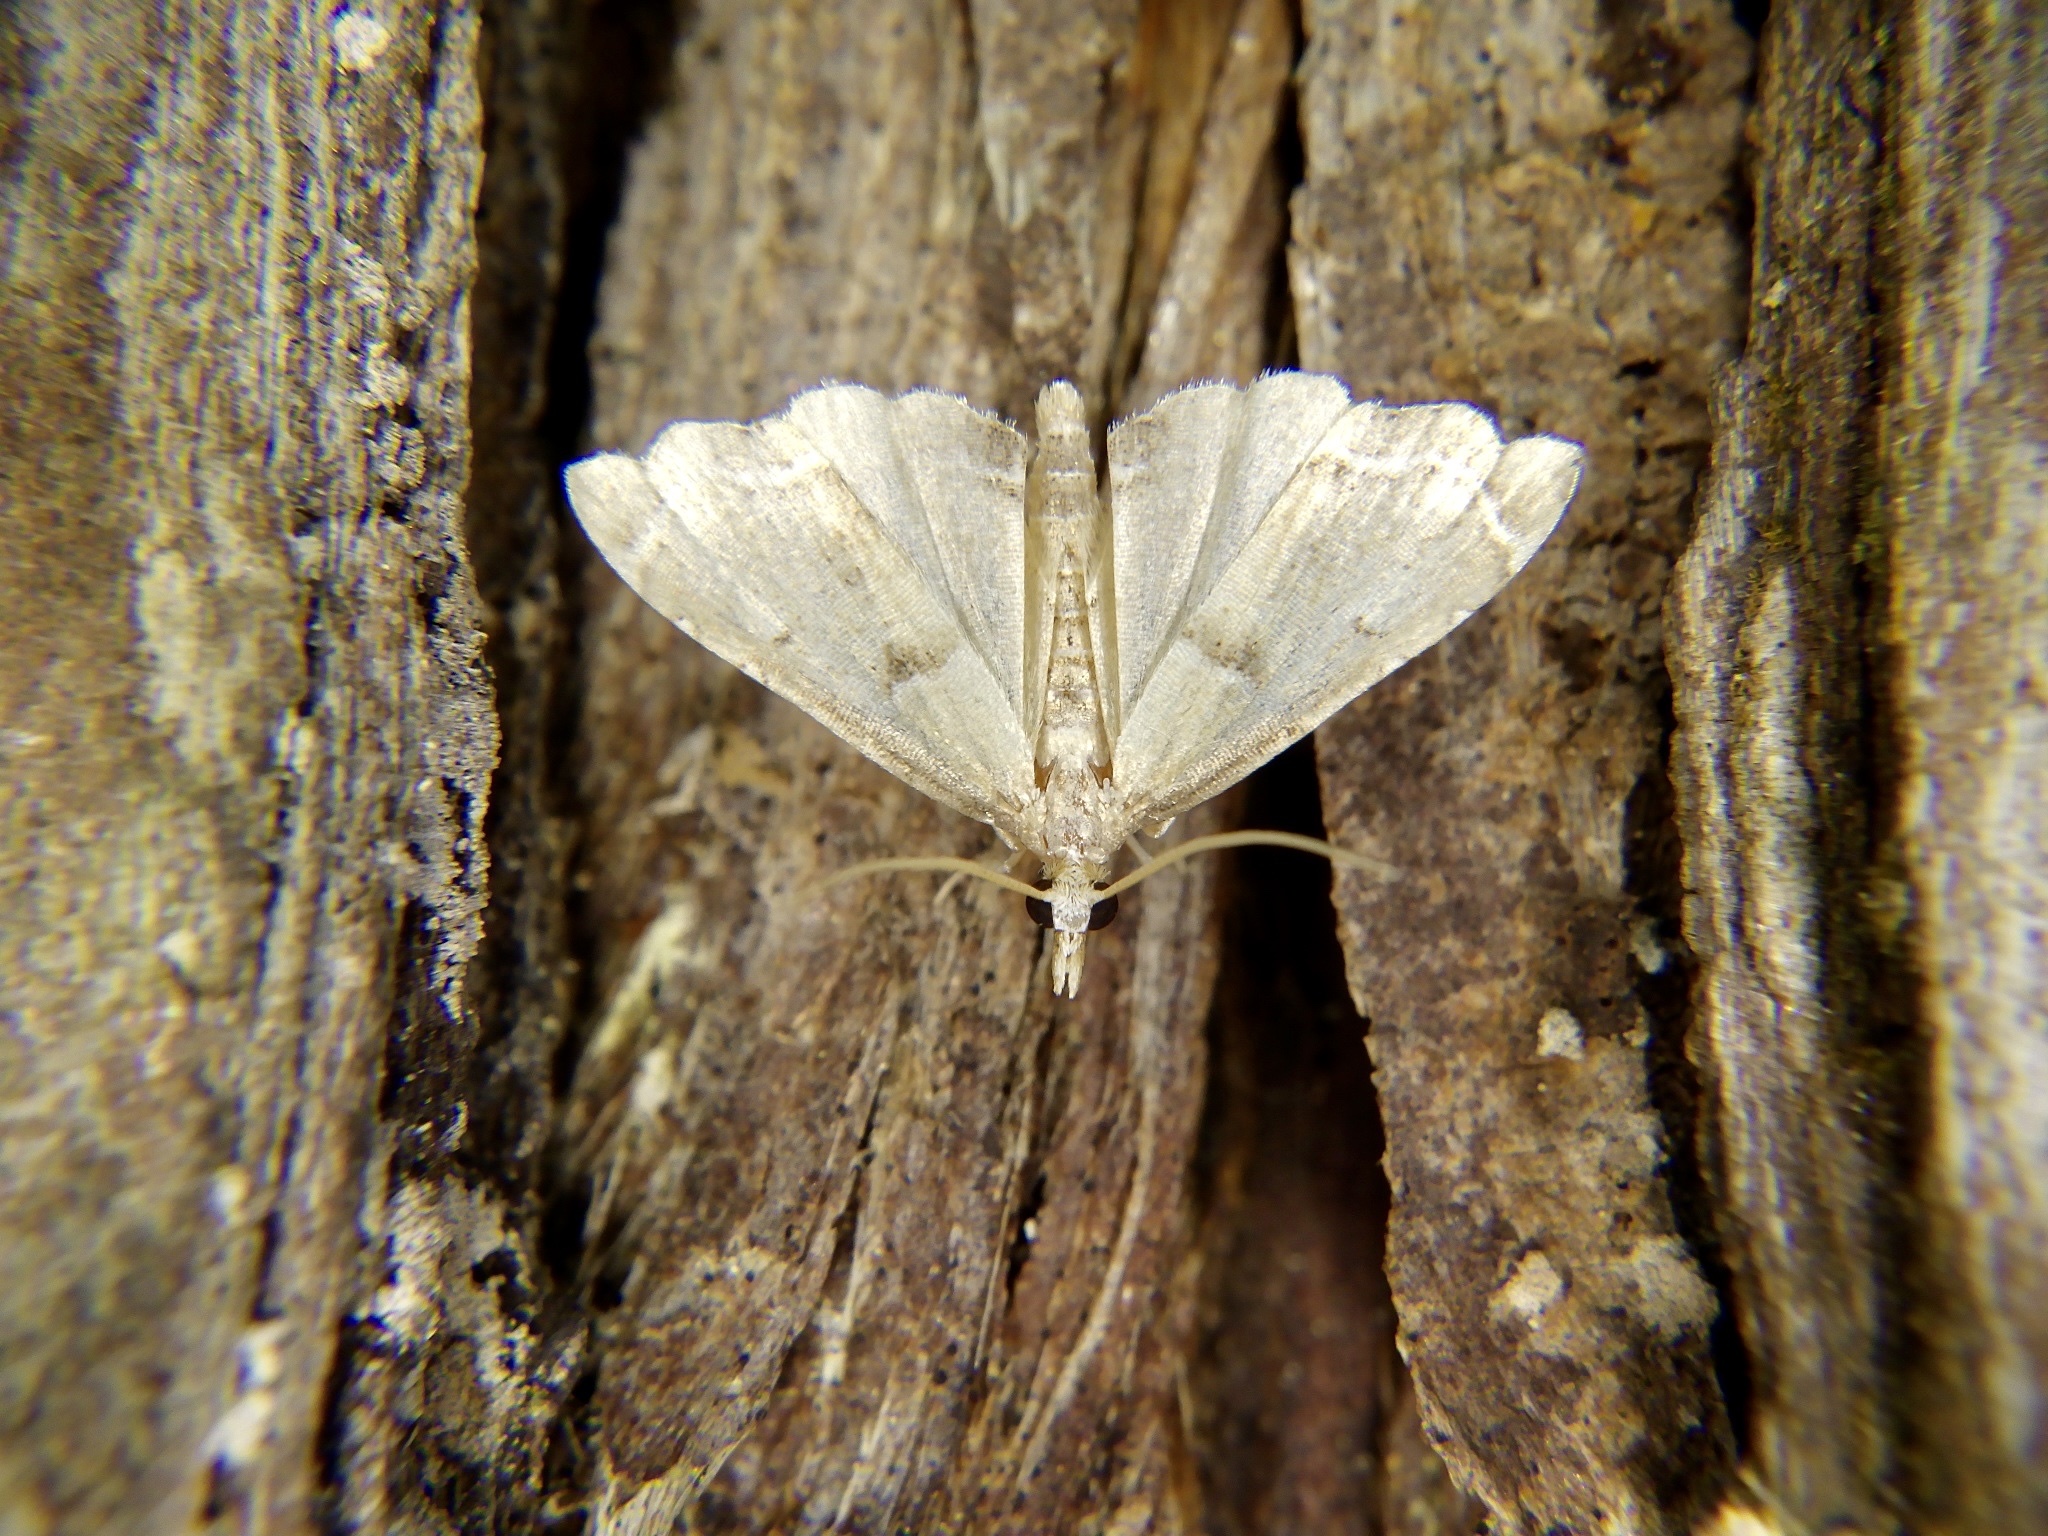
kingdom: Animalia
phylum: Arthropoda
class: Insecta
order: Lepidoptera
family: Crambidae
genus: Diplopseustis
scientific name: Diplopseustis perieresalis
